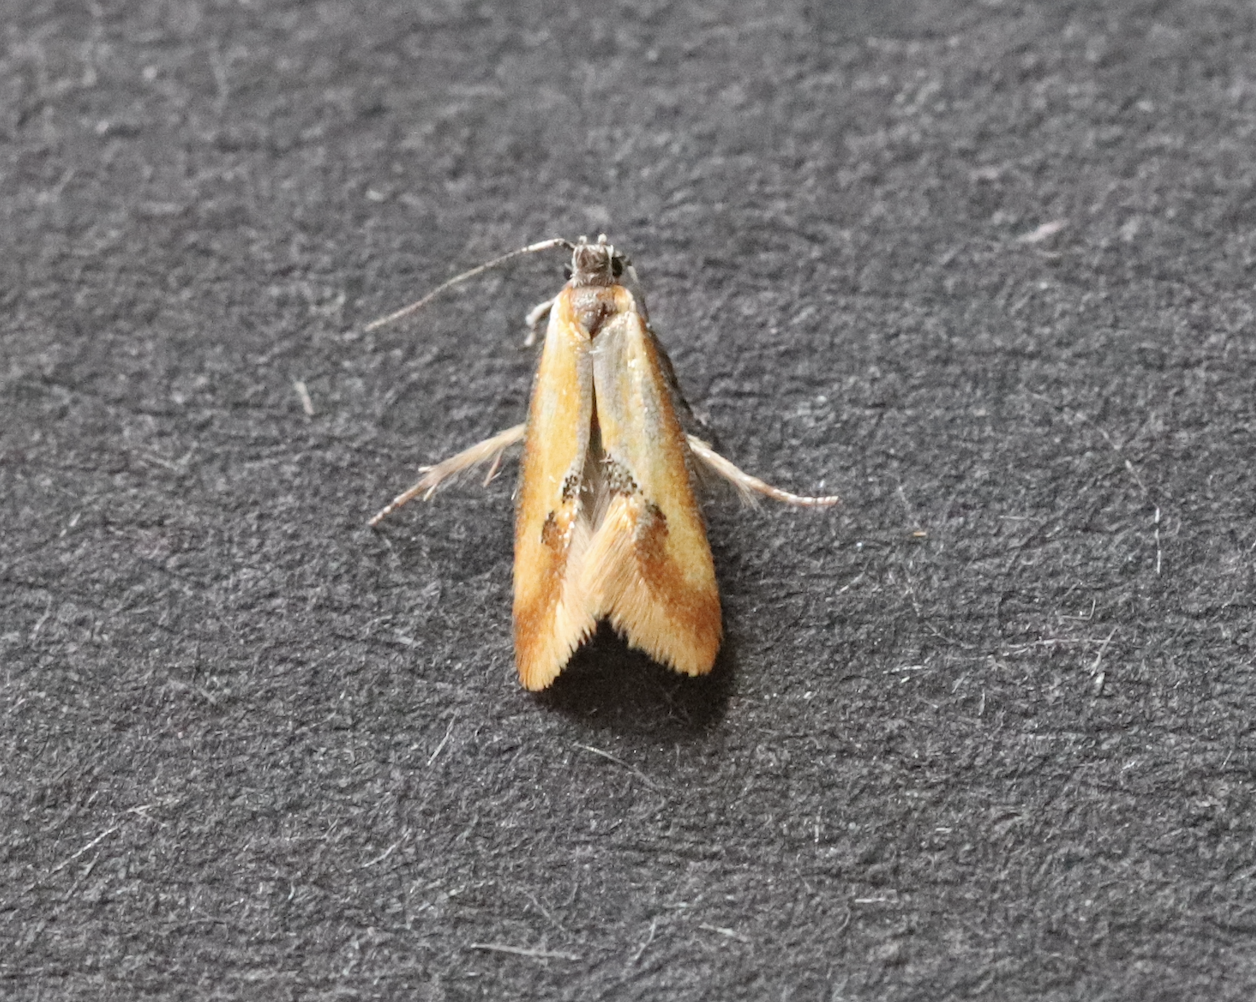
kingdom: Animalia
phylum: Arthropoda
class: Insecta
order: Lepidoptera
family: Oecophoridae
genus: Batia
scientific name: Batia lunaris
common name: Moth
